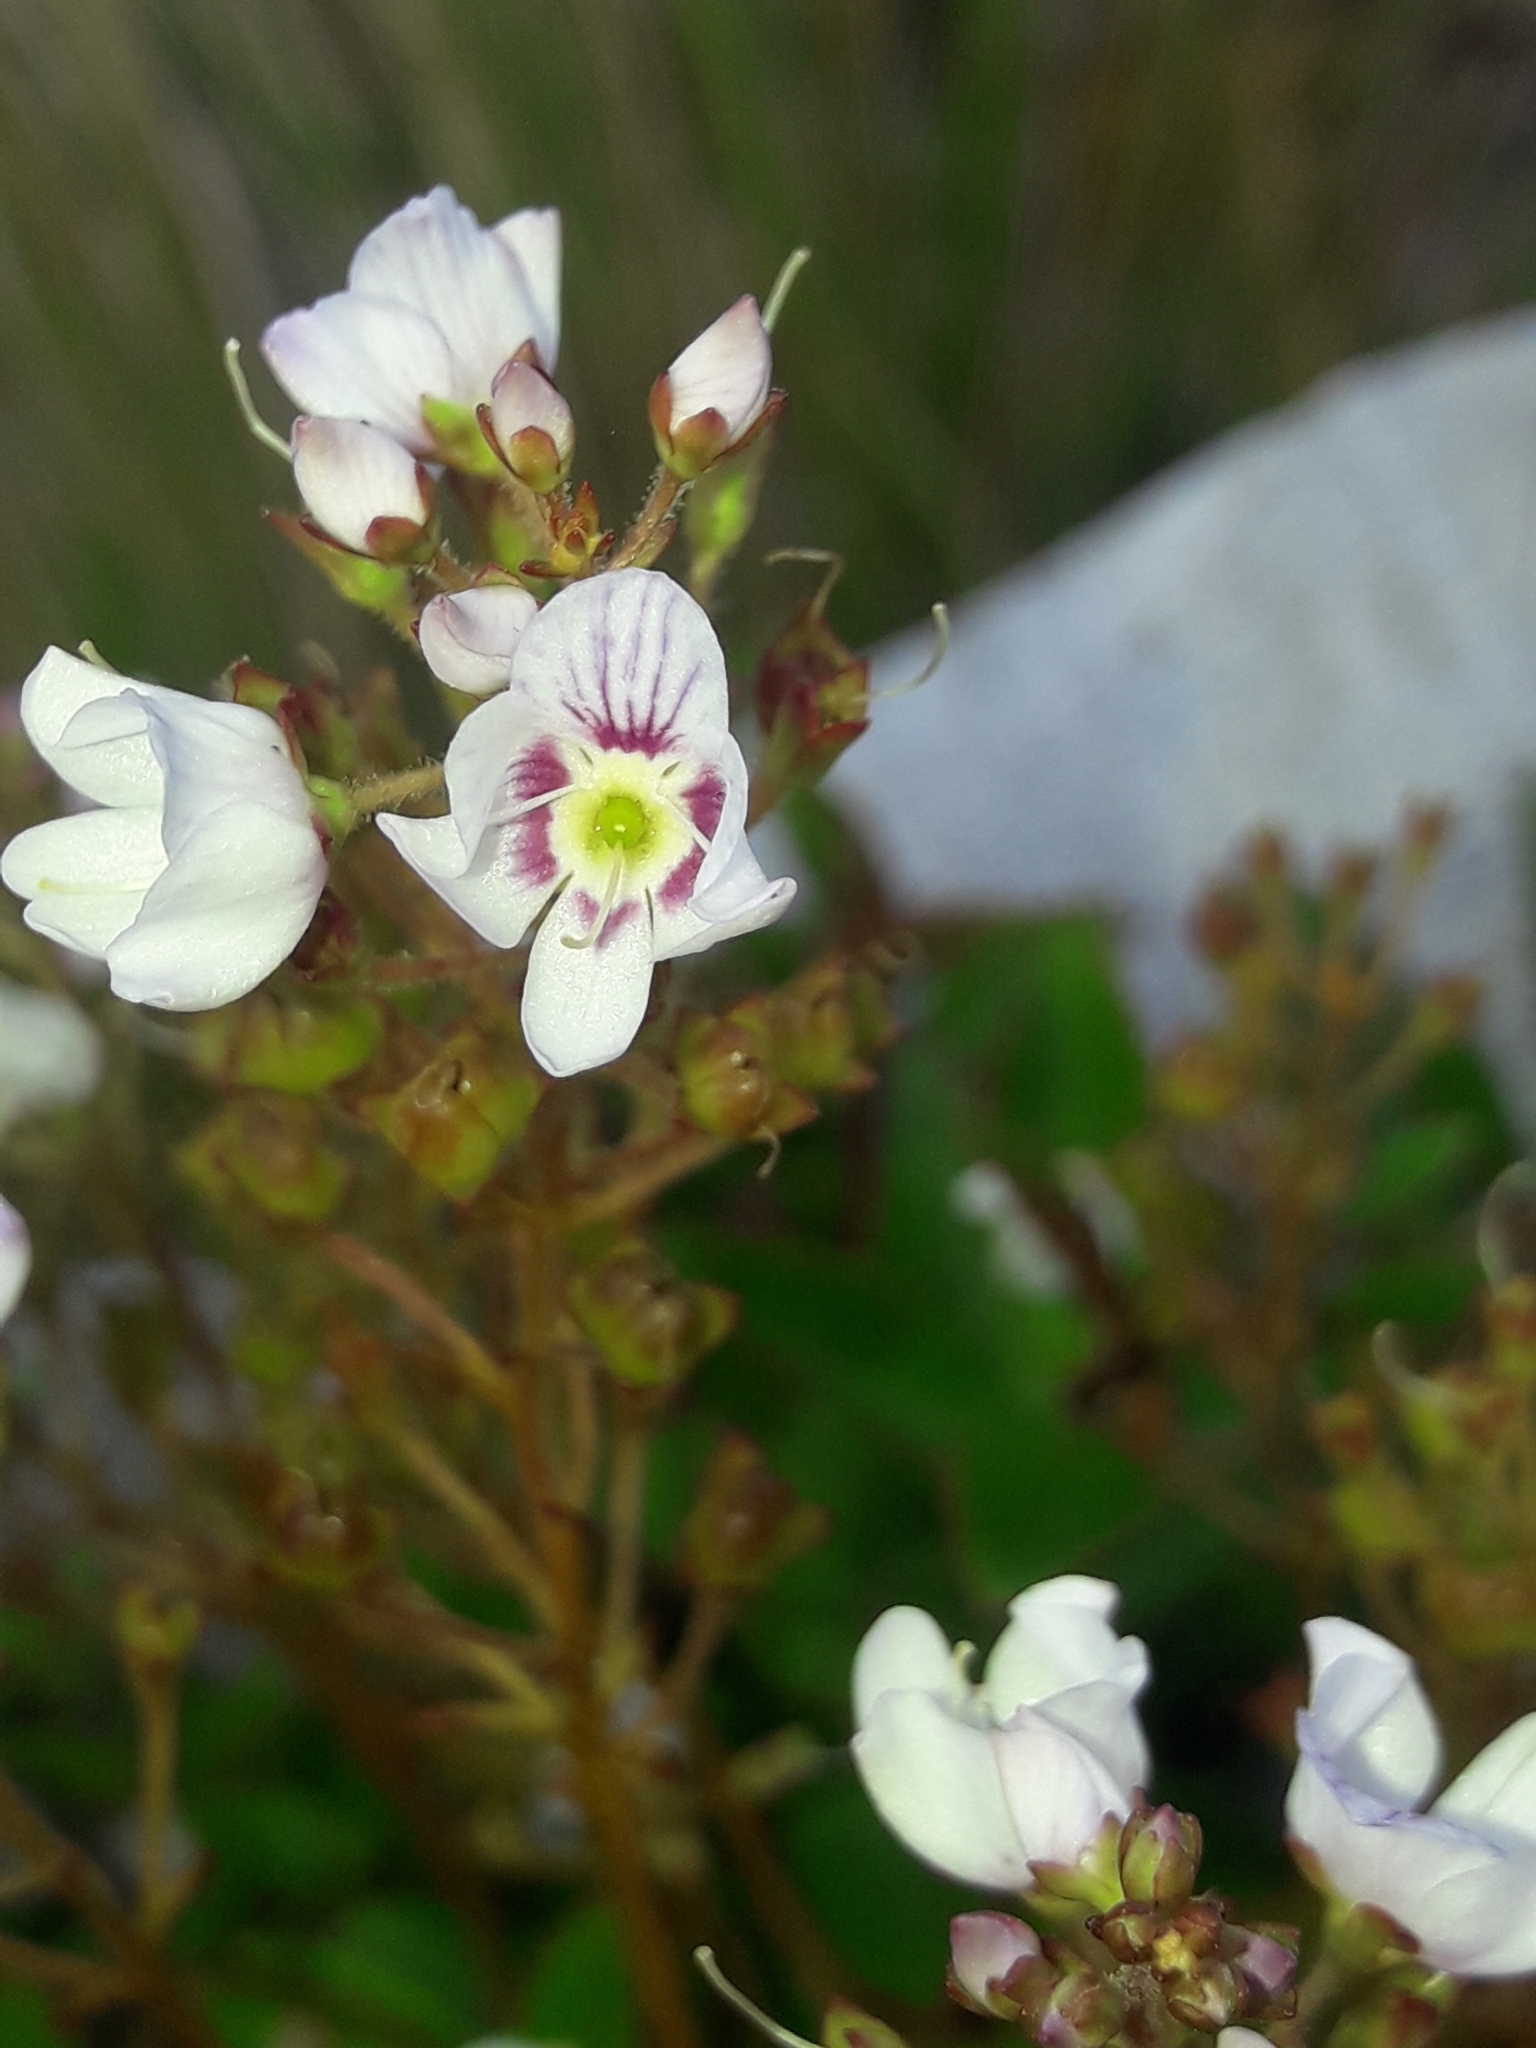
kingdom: Plantae
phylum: Tracheophyta
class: Magnoliopsida
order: Lamiales
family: Plantaginaceae
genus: Veronica
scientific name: Veronica lanceolata
